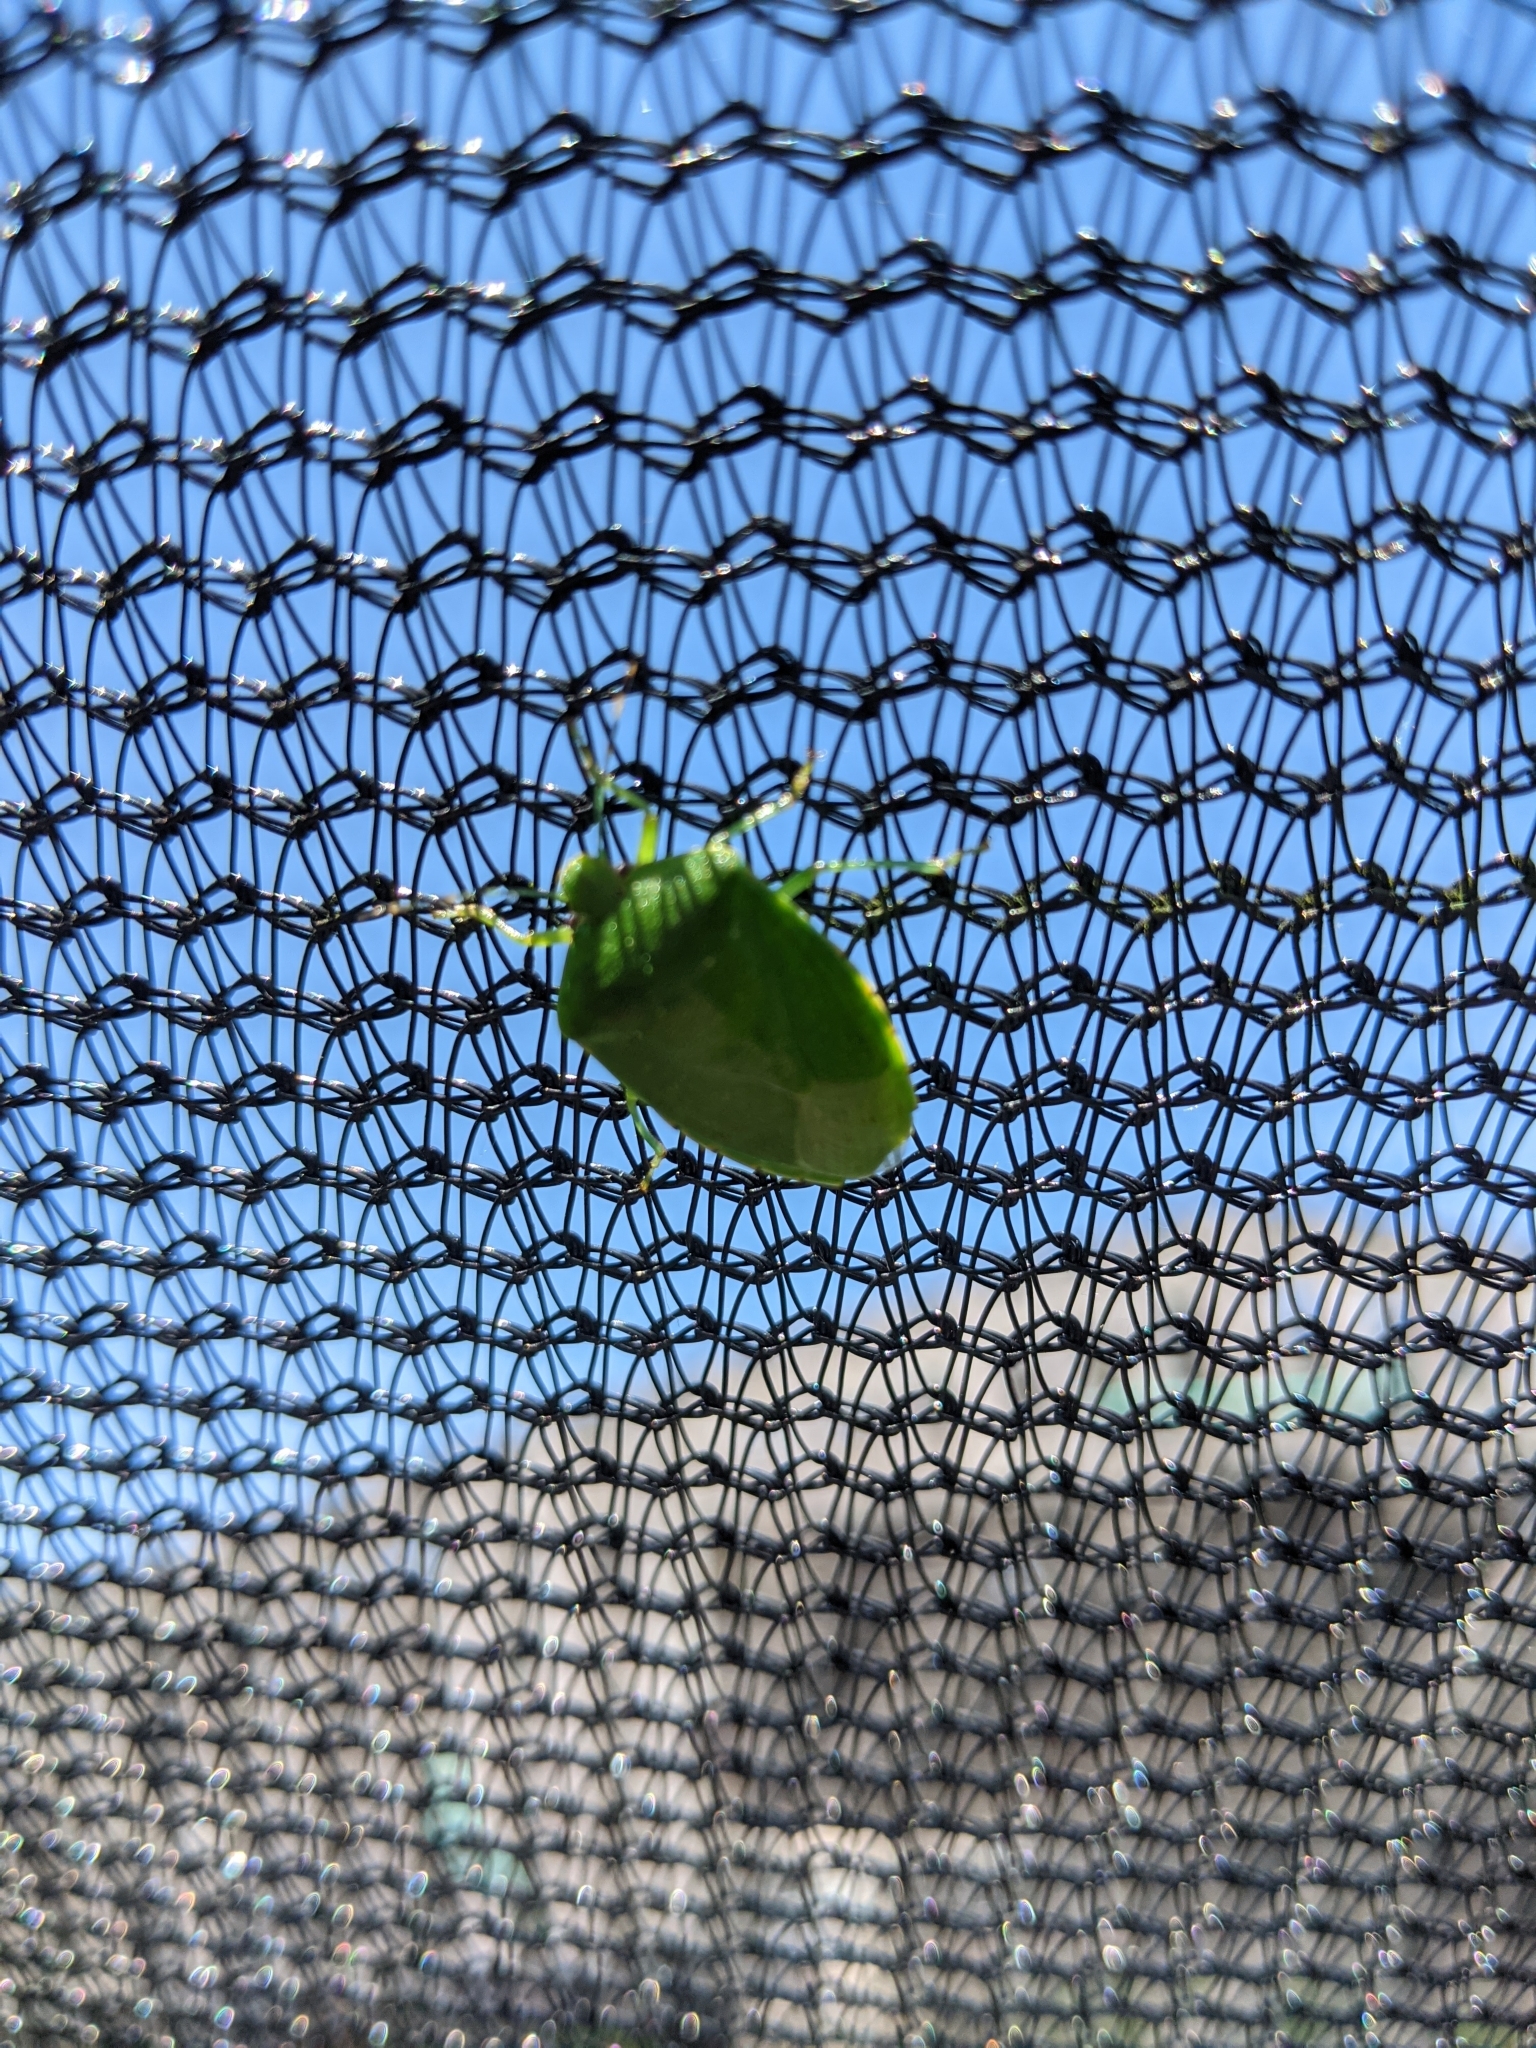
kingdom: Animalia
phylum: Arthropoda
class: Insecta
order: Hemiptera
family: Pentatomidae
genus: Chinavia
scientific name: Chinavia hilaris
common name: Green stink bug
